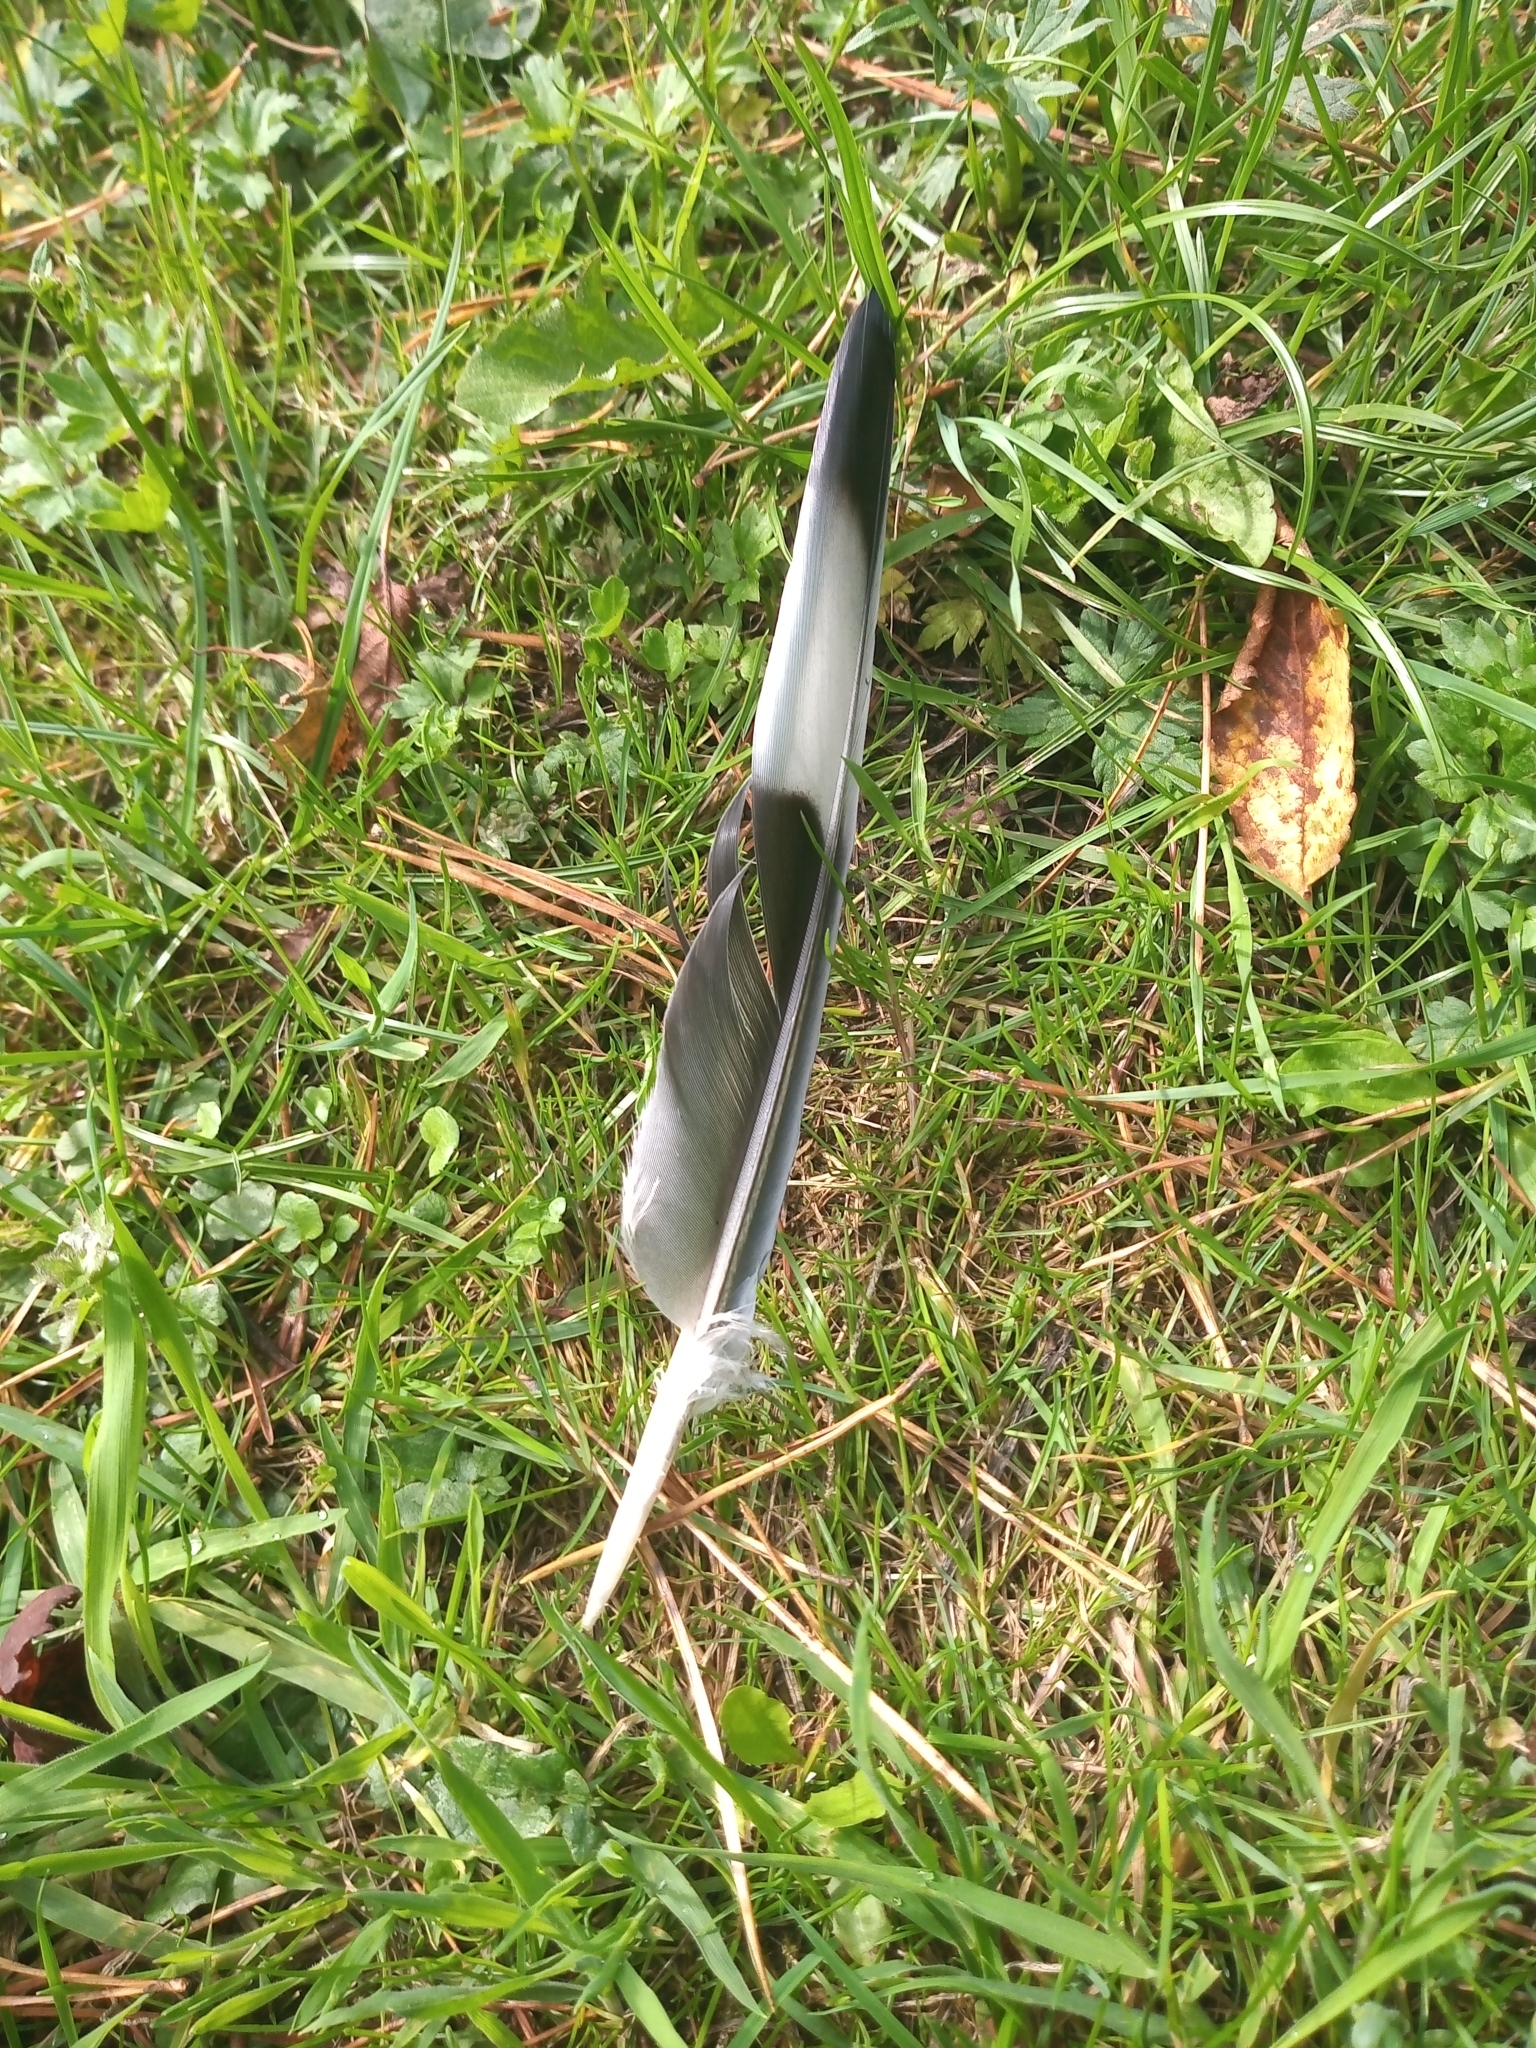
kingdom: Animalia
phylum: Chordata
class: Aves
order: Columbiformes
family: Columbidae
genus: Columba
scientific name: Columba palumbus
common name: Common wood pigeon
